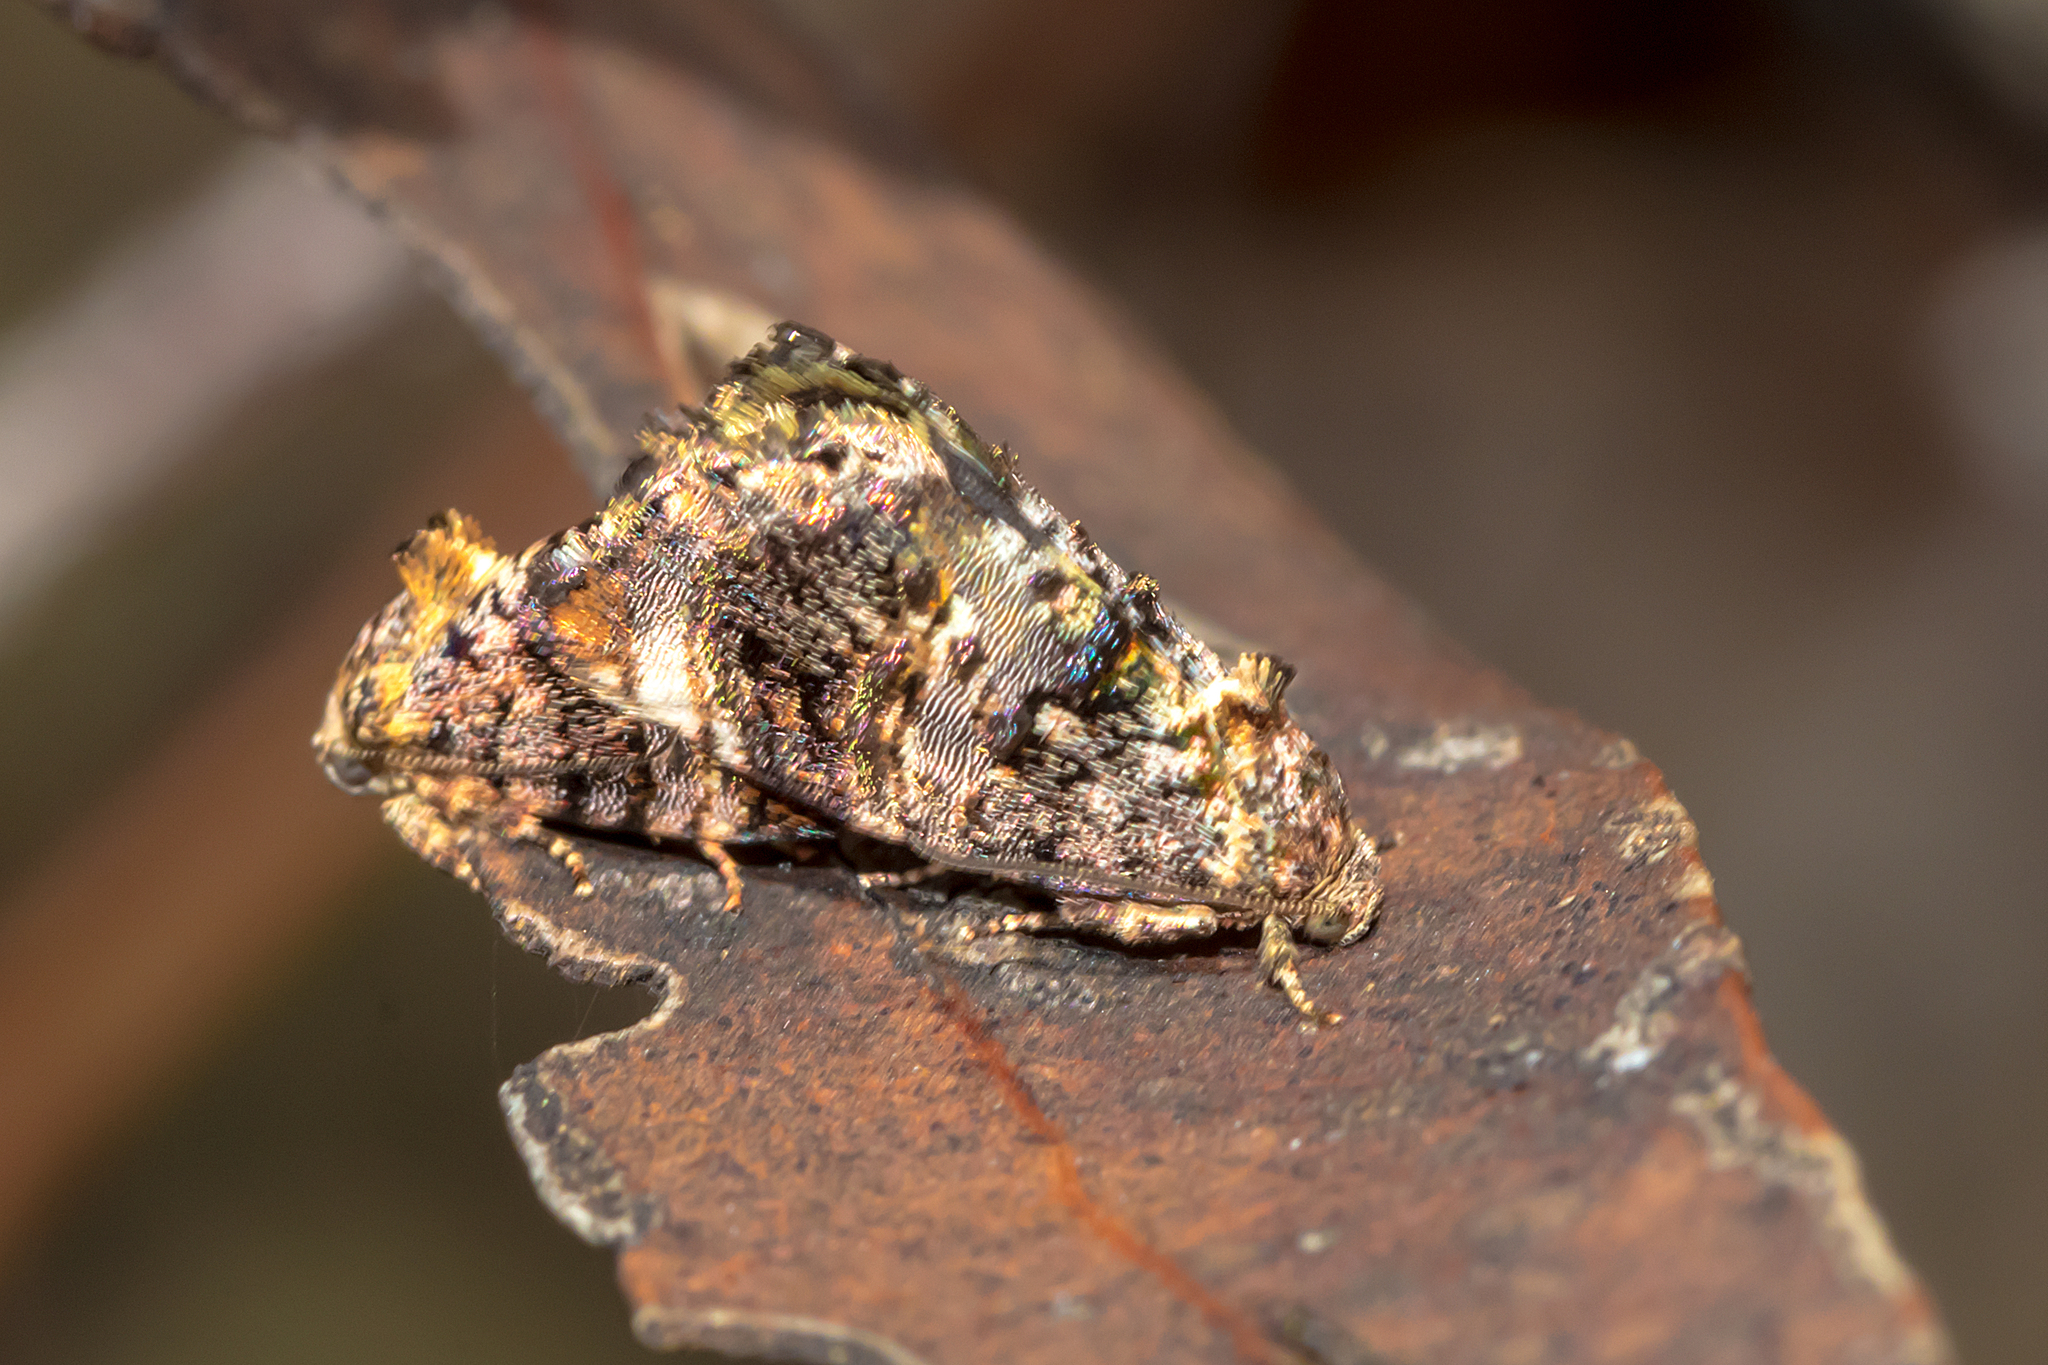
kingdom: Animalia
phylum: Arthropoda
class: Insecta
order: Lepidoptera
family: Depressariidae
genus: Hypertropha
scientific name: Hypertropha tortriciformis
